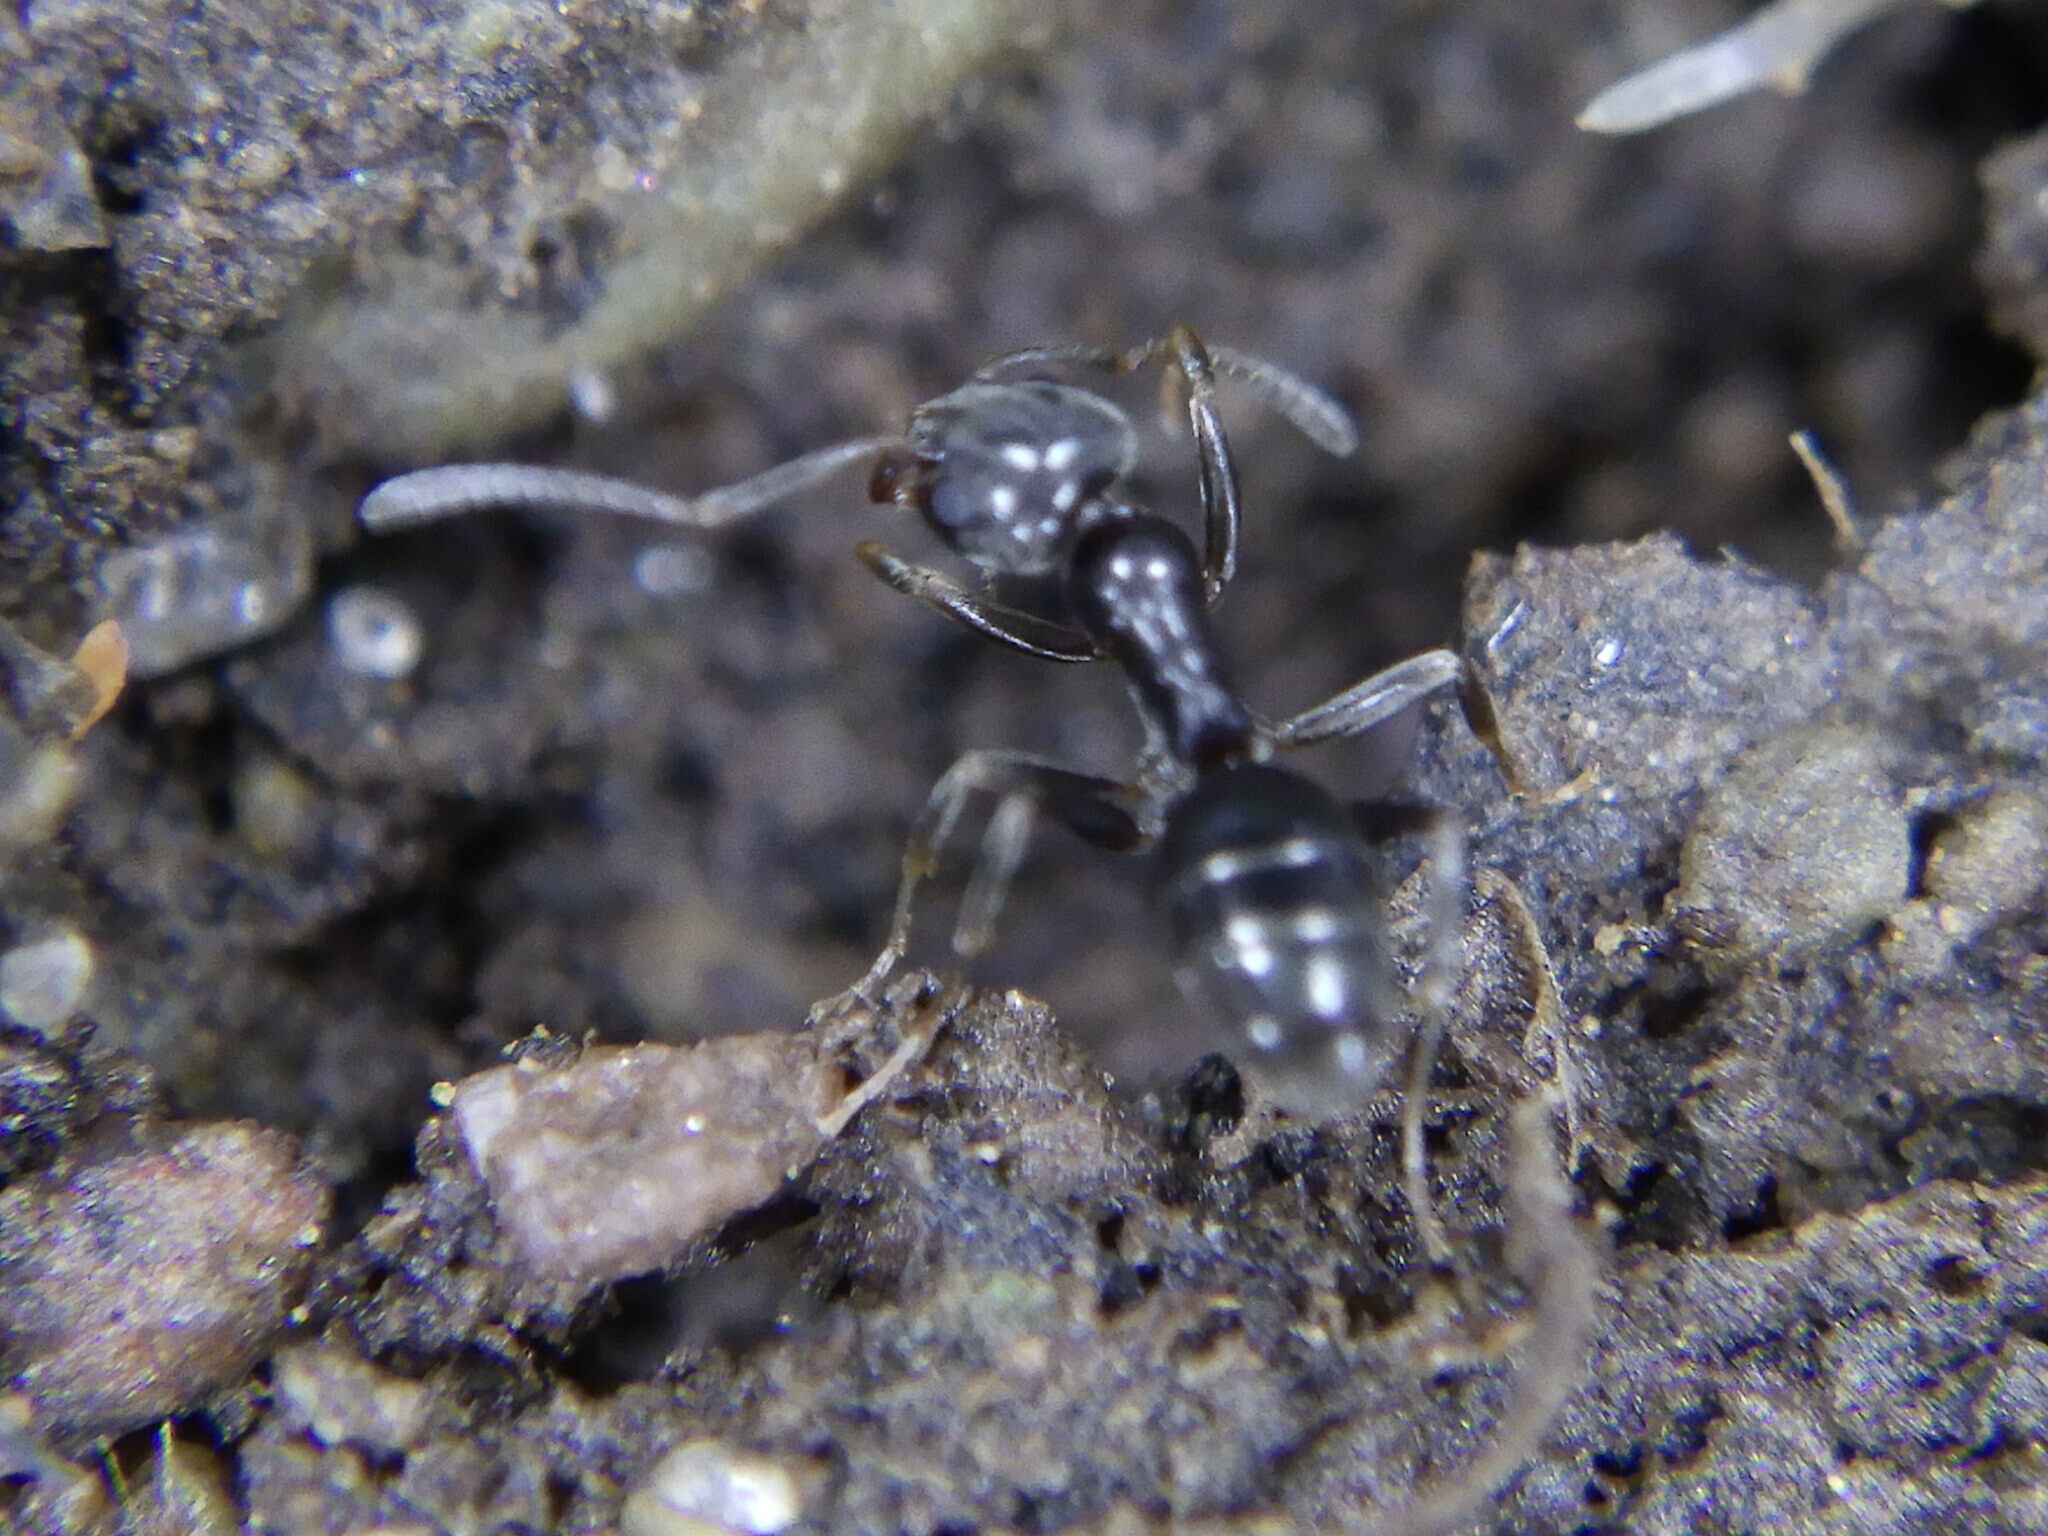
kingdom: Animalia
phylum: Arthropoda
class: Insecta
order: Hymenoptera
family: Formicidae
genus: Tapinoma
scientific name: Tapinoma sessile
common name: Odorous house ant
